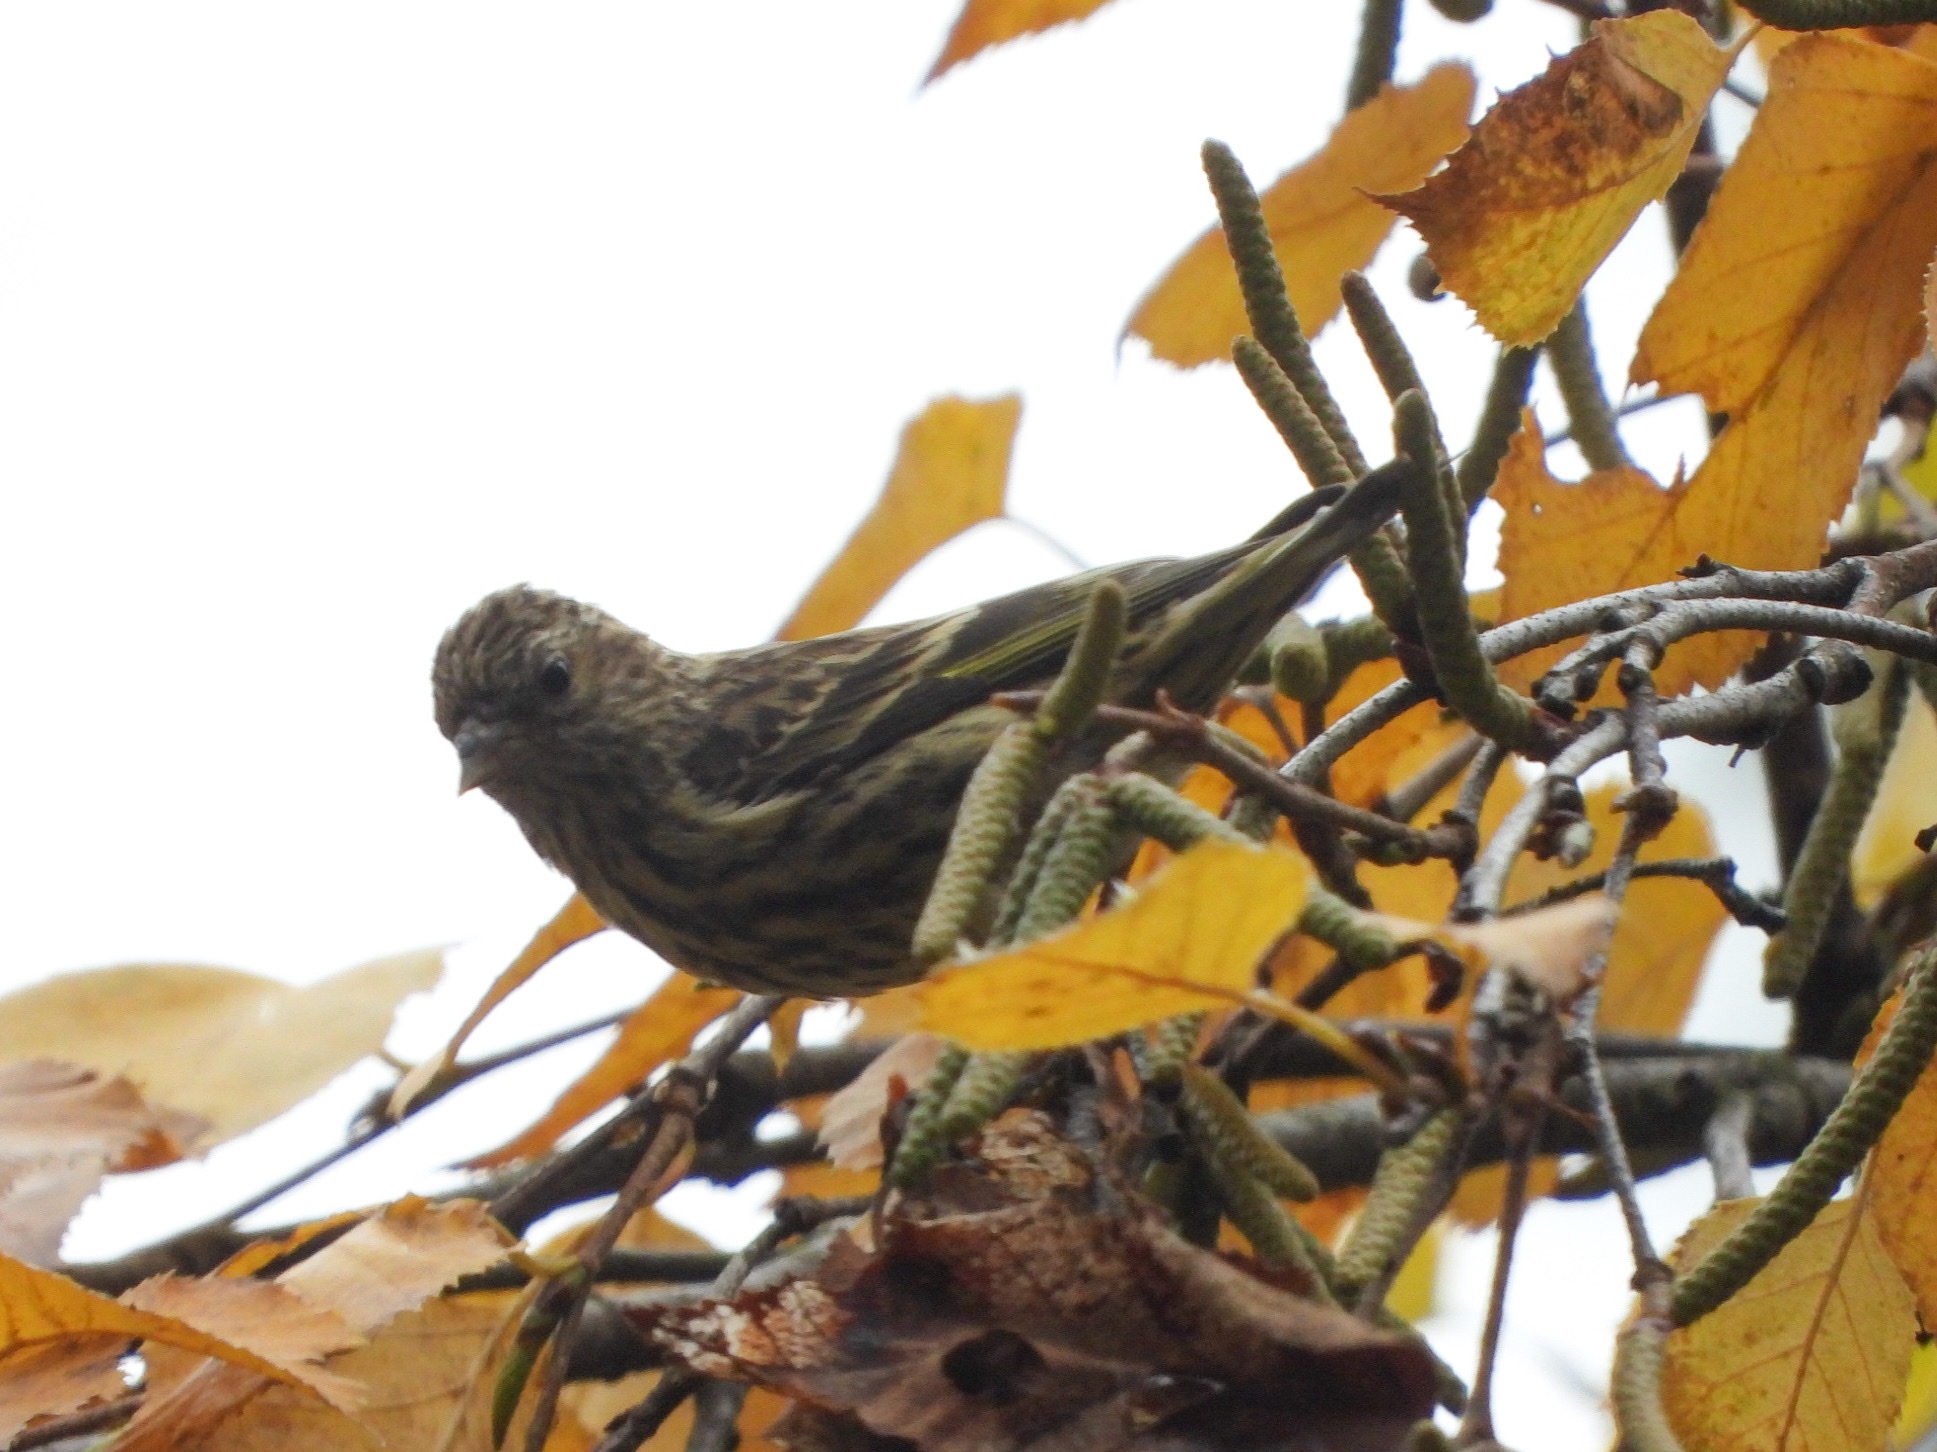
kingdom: Animalia
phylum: Chordata
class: Aves
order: Passeriformes
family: Fringillidae
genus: Spinus
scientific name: Spinus pinus
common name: Pine siskin
